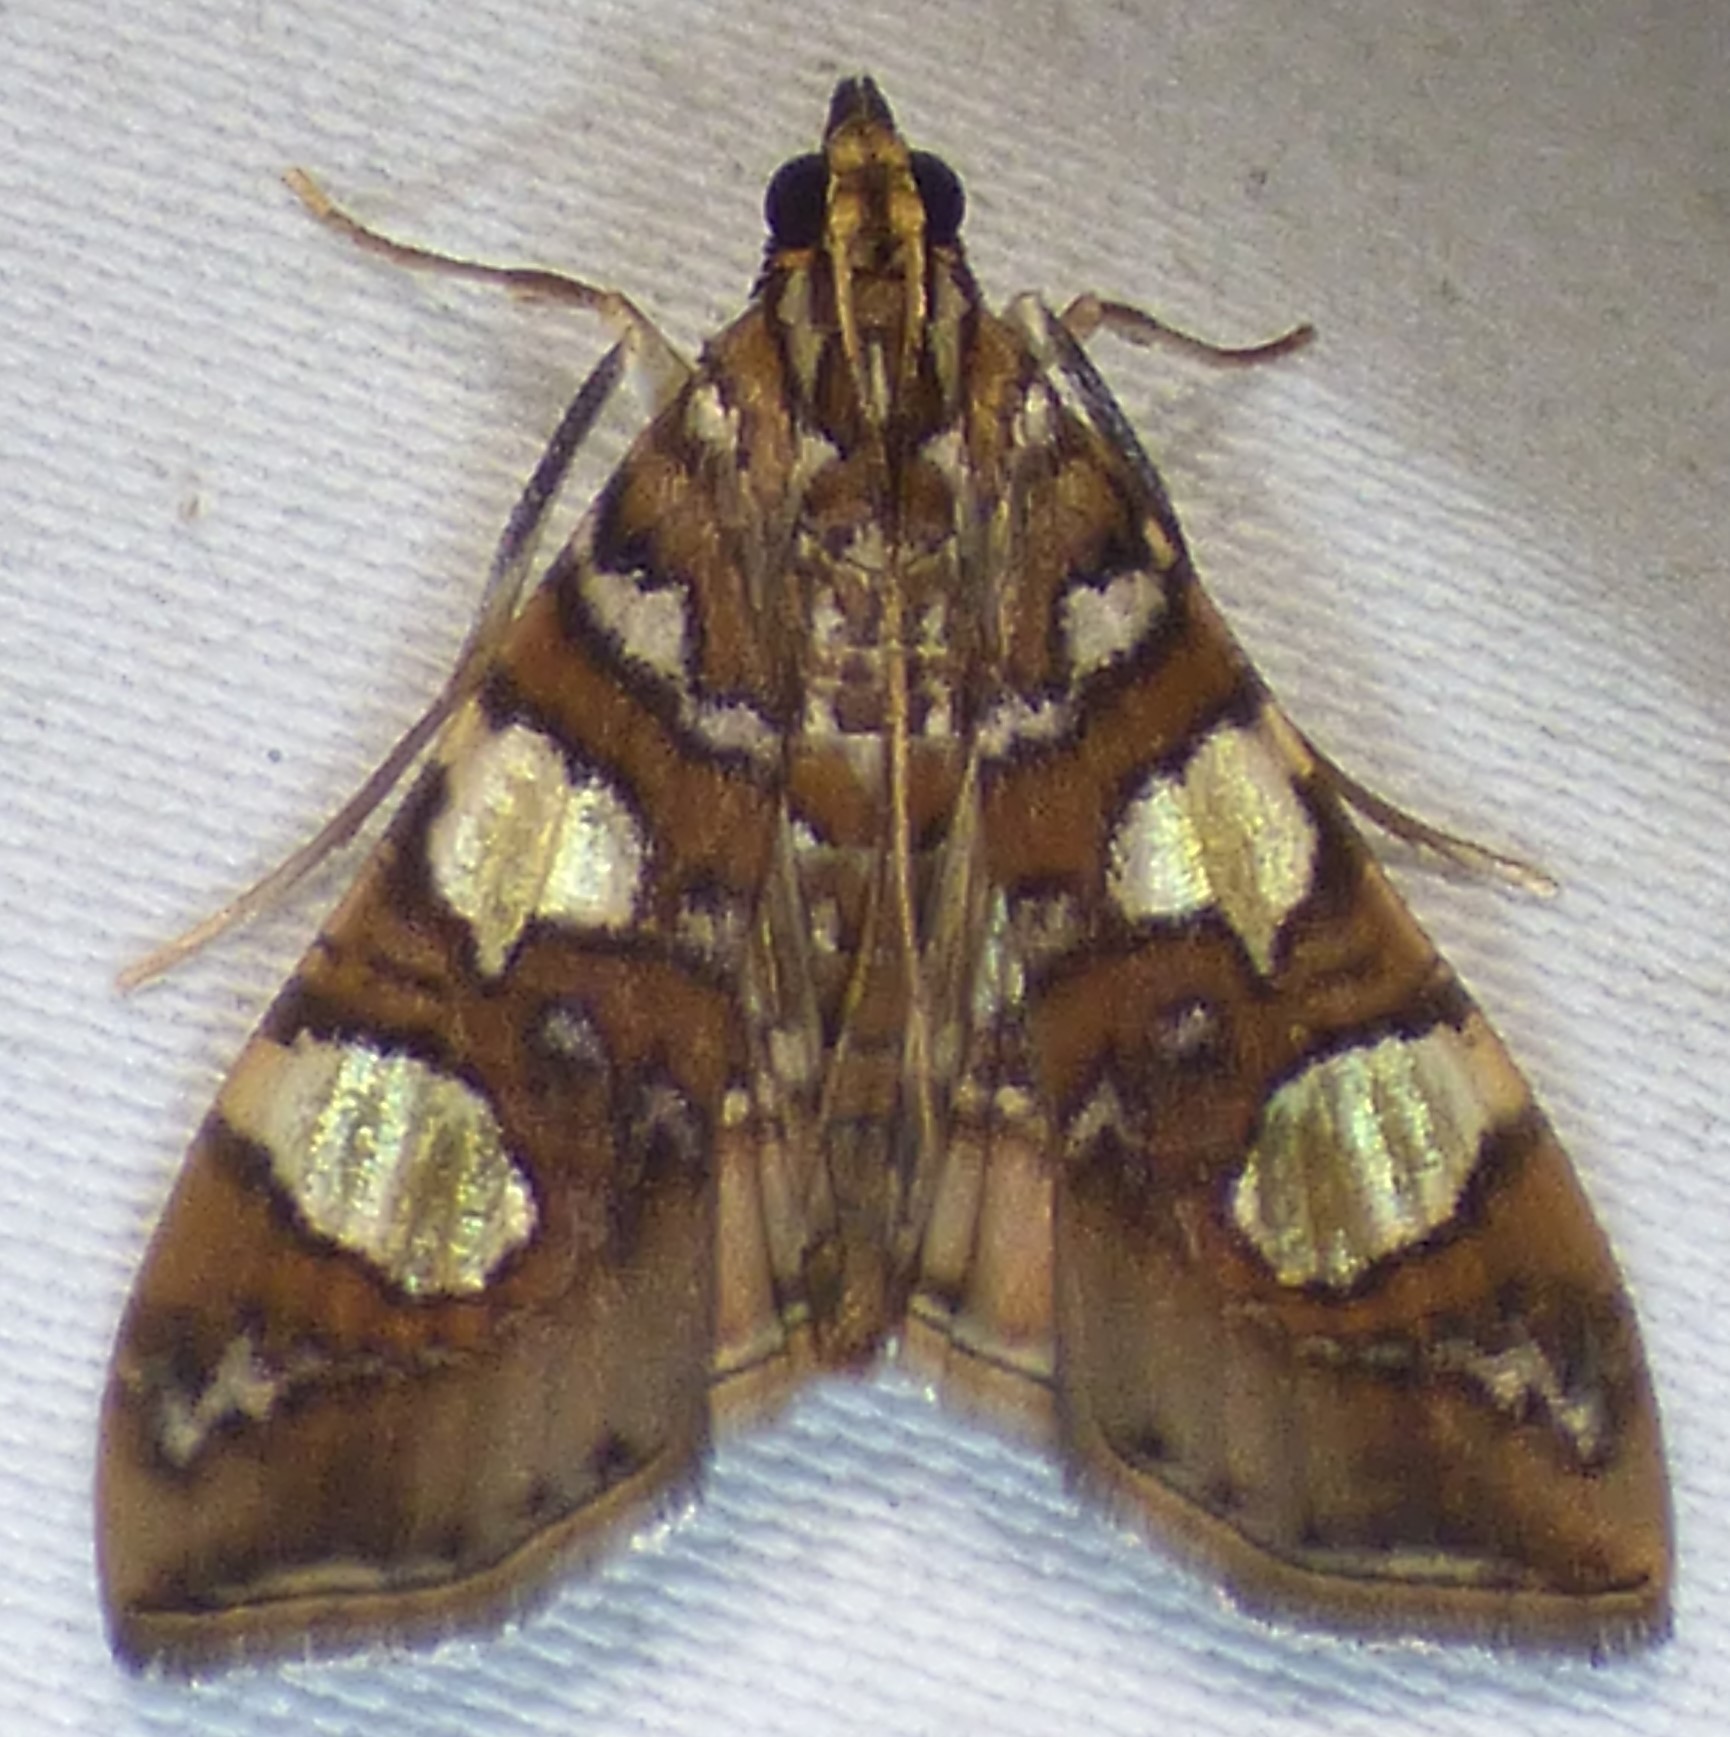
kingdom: Animalia
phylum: Arthropoda
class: Insecta
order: Lepidoptera
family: Crambidae
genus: Glyphodes
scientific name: Glyphodes sibillalis
